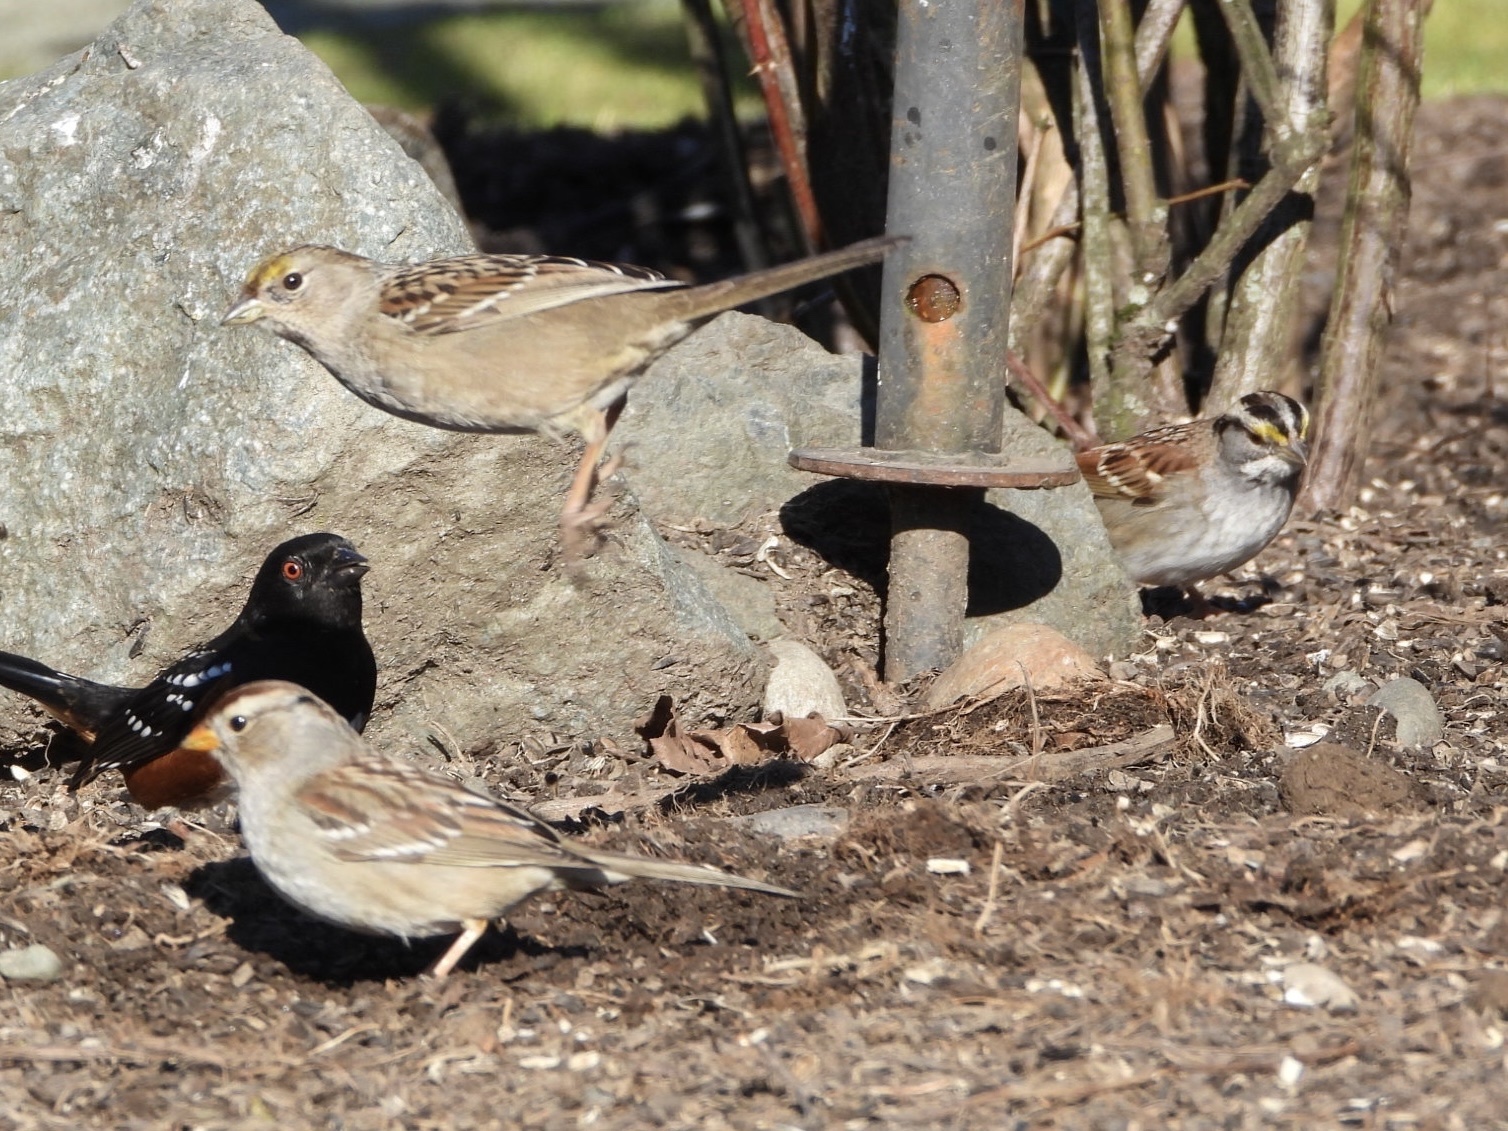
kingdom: Animalia
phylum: Chordata
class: Aves
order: Passeriformes
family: Passerellidae
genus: Zonotrichia
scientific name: Zonotrichia atricapilla
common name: Golden-crowned sparrow
